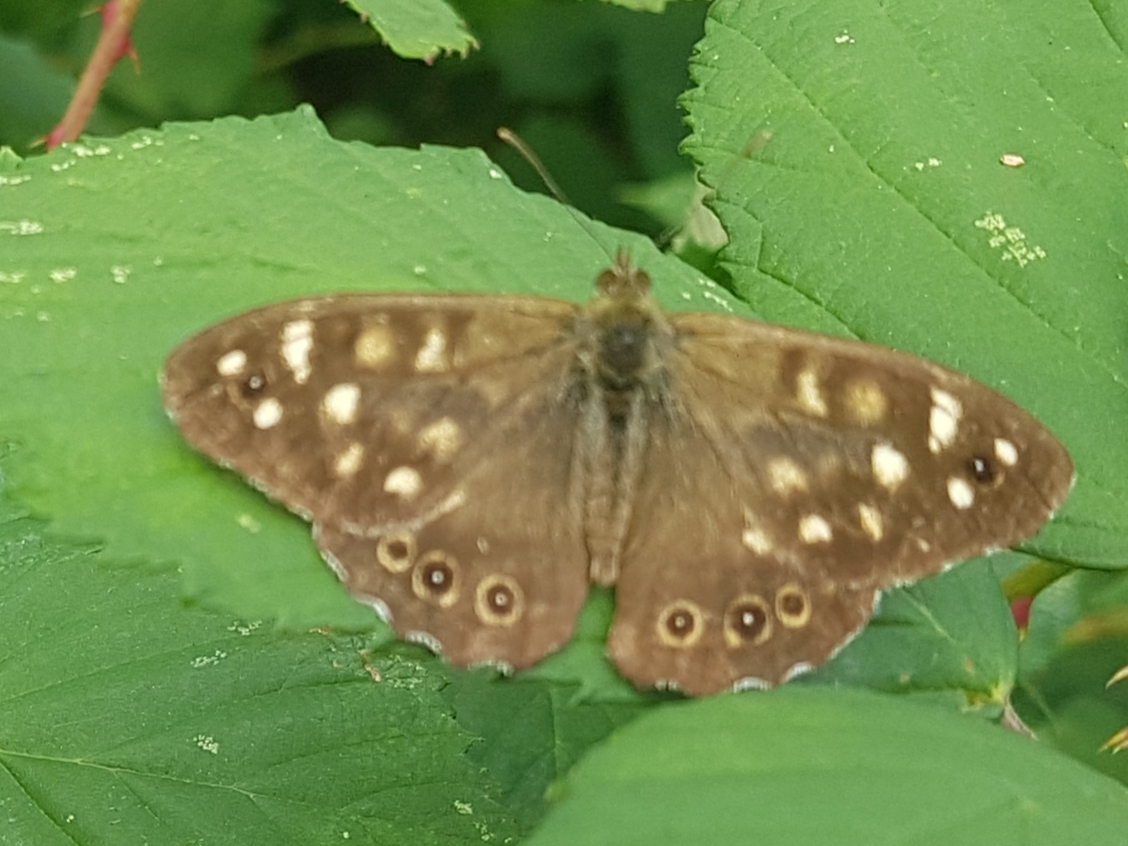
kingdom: Animalia
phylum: Arthropoda
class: Insecta
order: Lepidoptera
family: Nymphalidae
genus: Pararge
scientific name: Pararge aegeria
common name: Speckled wood
